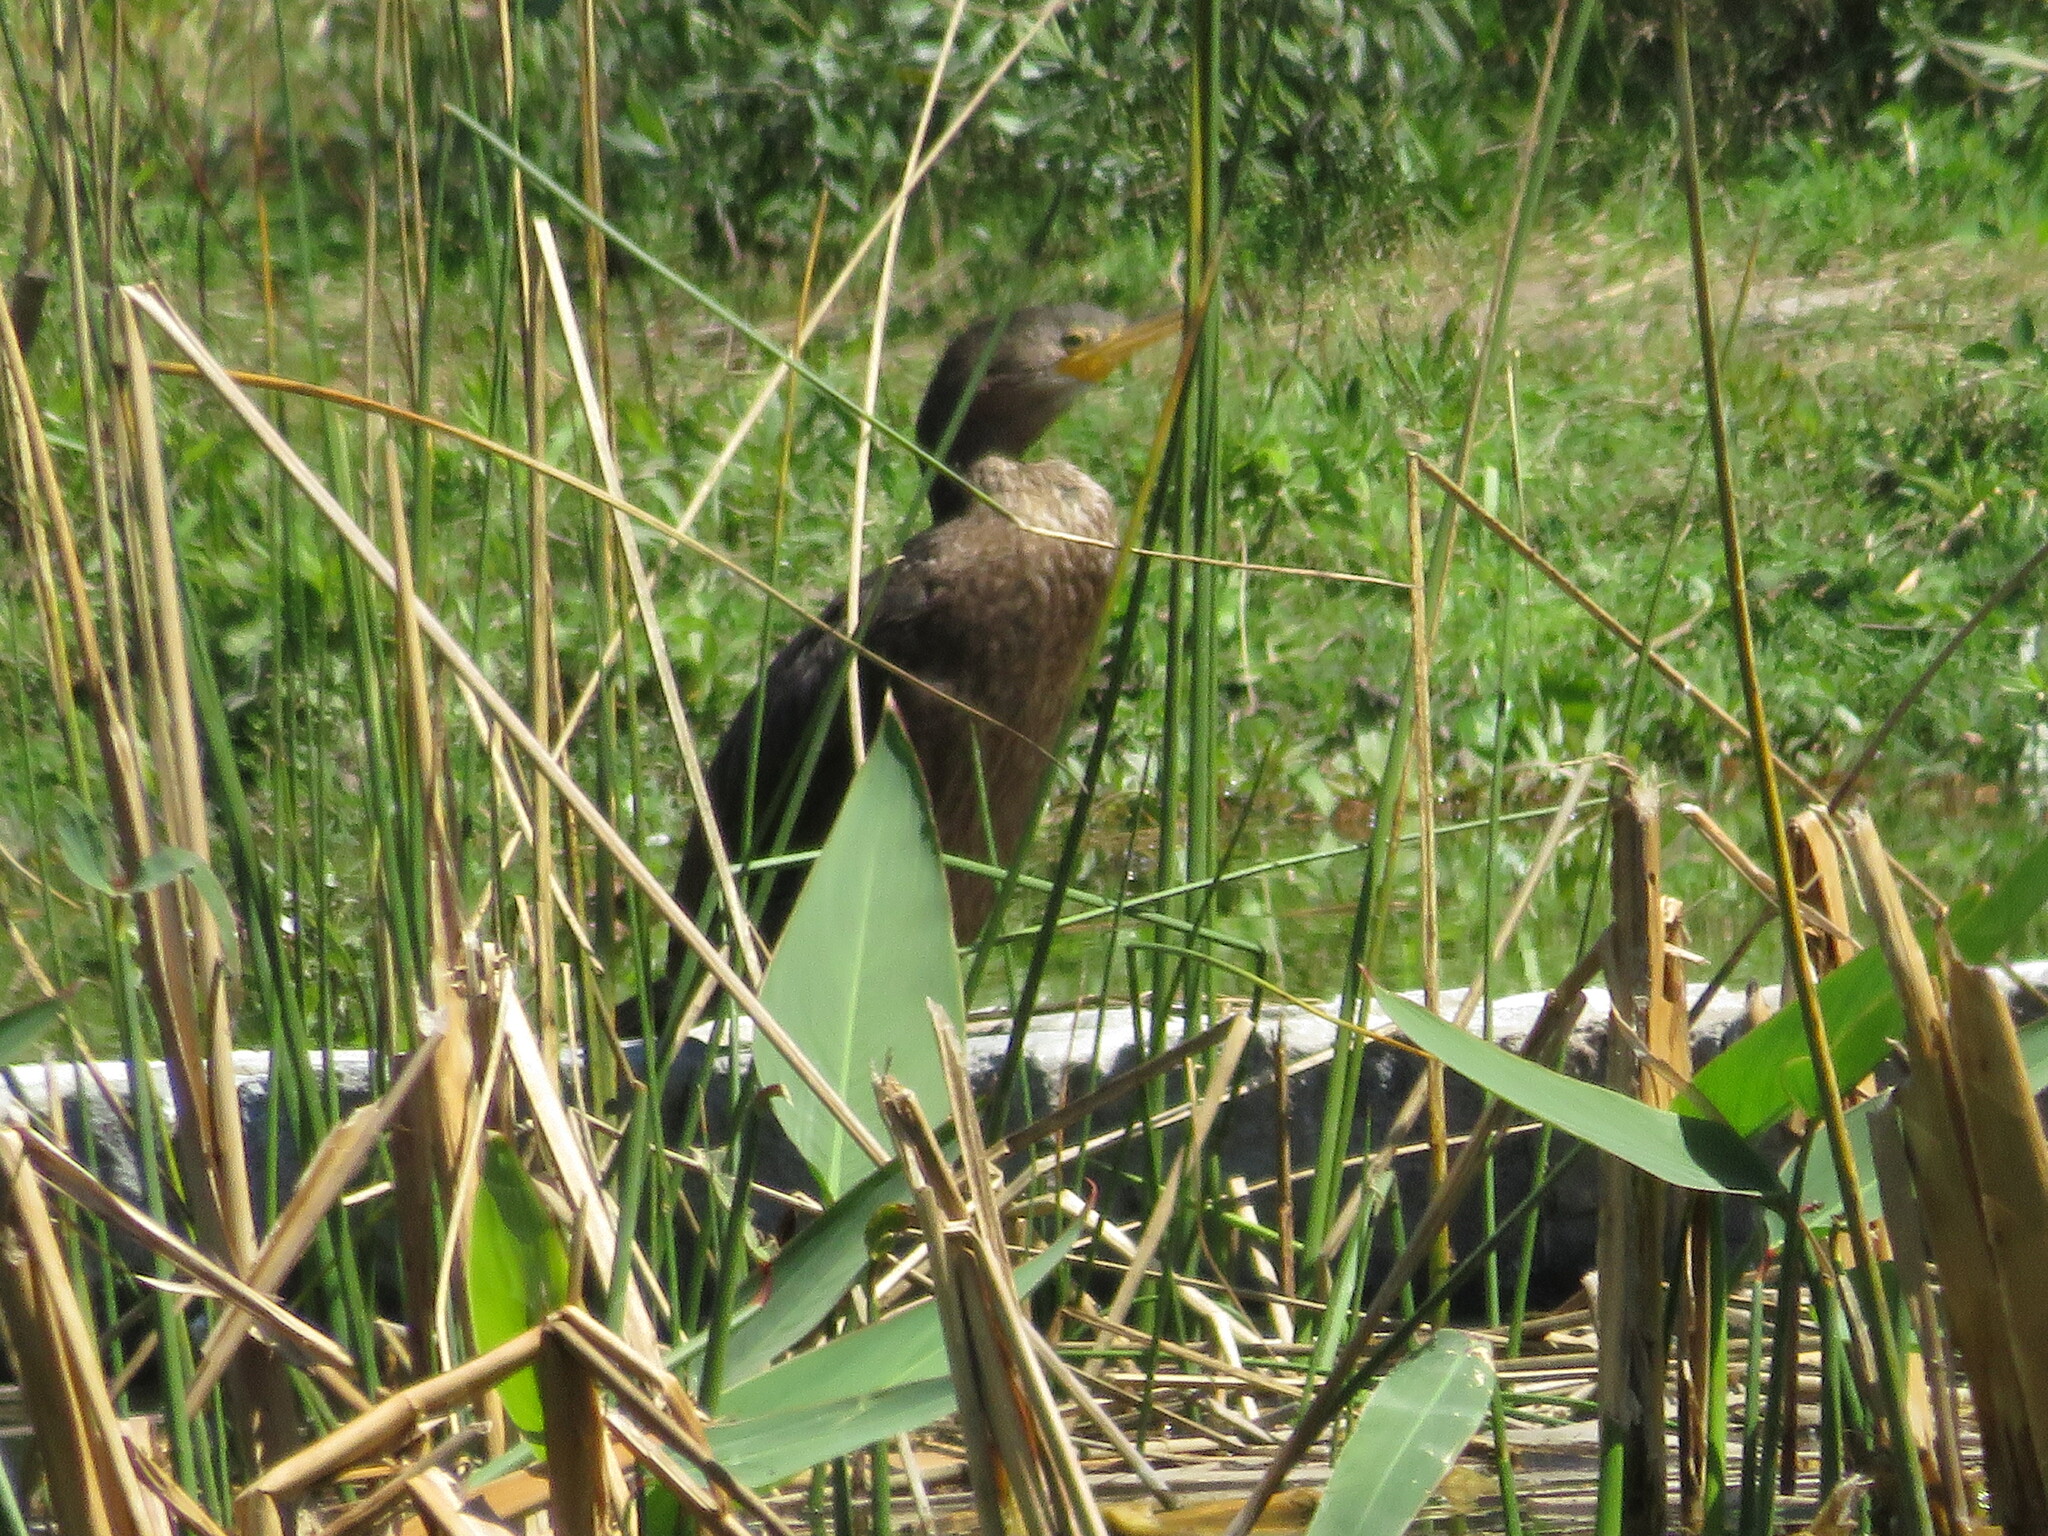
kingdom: Animalia
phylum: Chordata
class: Aves
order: Suliformes
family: Phalacrocoracidae
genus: Phalacrocorax
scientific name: Phalacrocorax brasilianus
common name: Neotropic cormorant
